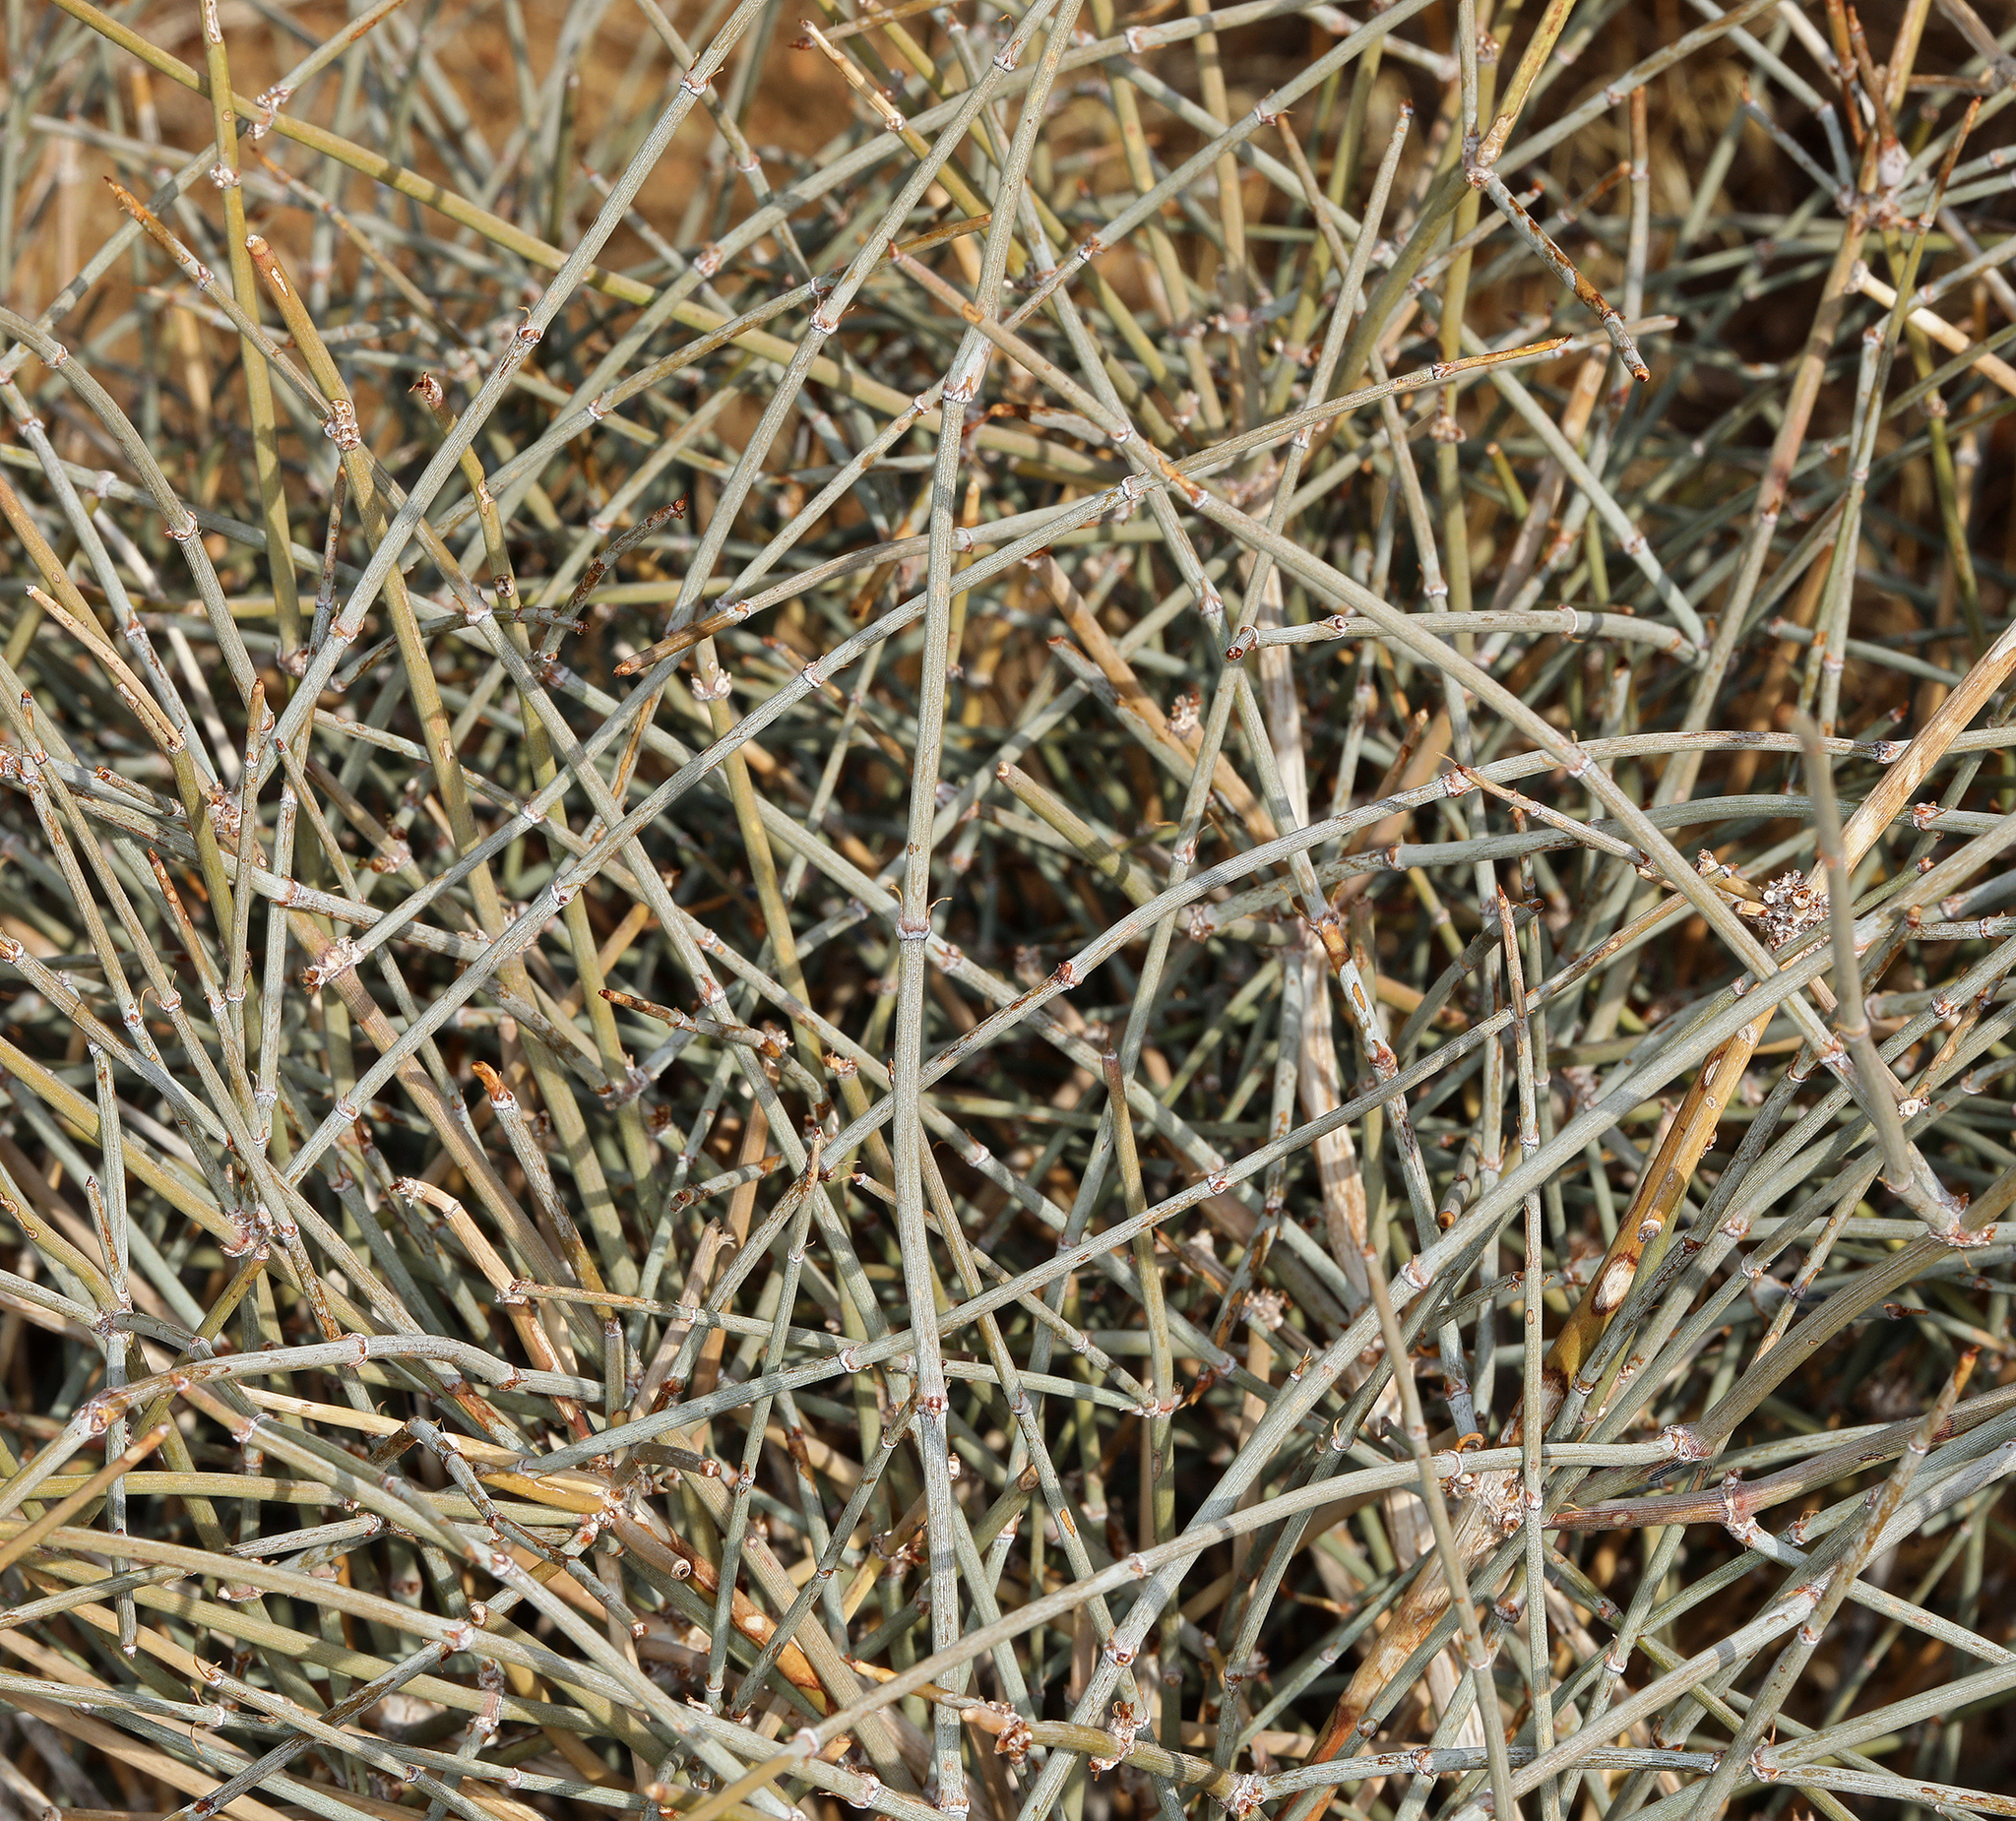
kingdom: Plantae
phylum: Tracheophyta
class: Gnetopsida
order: Ephedrales
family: Ephedraceae
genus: Ephedra
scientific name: Ephedra nevadensis
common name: Gray ephedra
